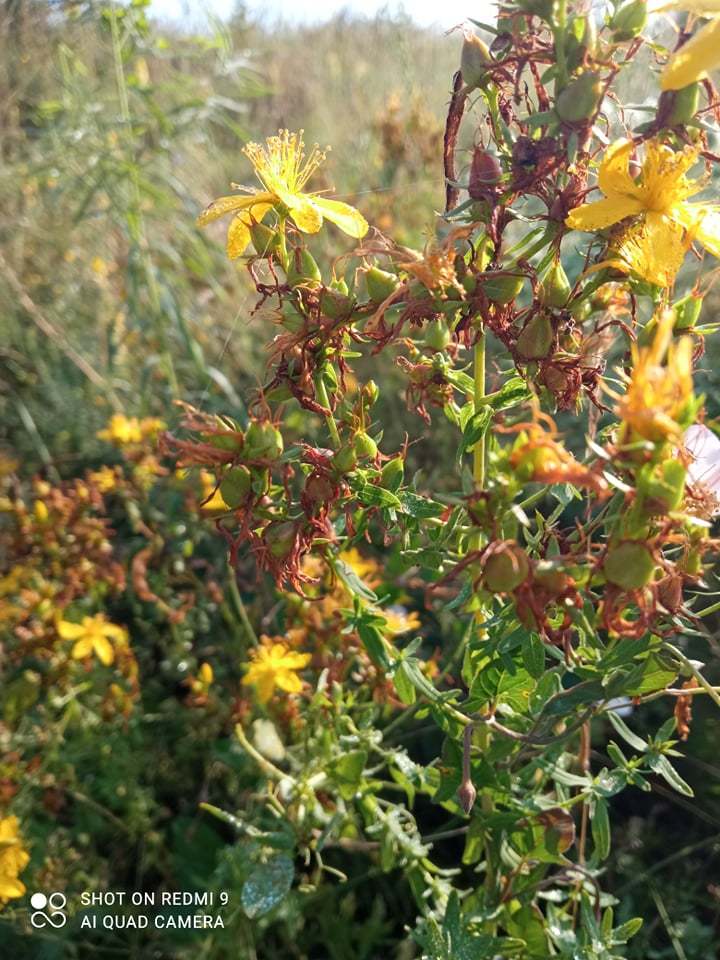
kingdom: Plantae
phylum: Tracheophyta
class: Magnoliopsida
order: Malpighiales
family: Hypericaceae
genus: Hypericum
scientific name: Hypericum perforatum
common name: Common st. johnswort
